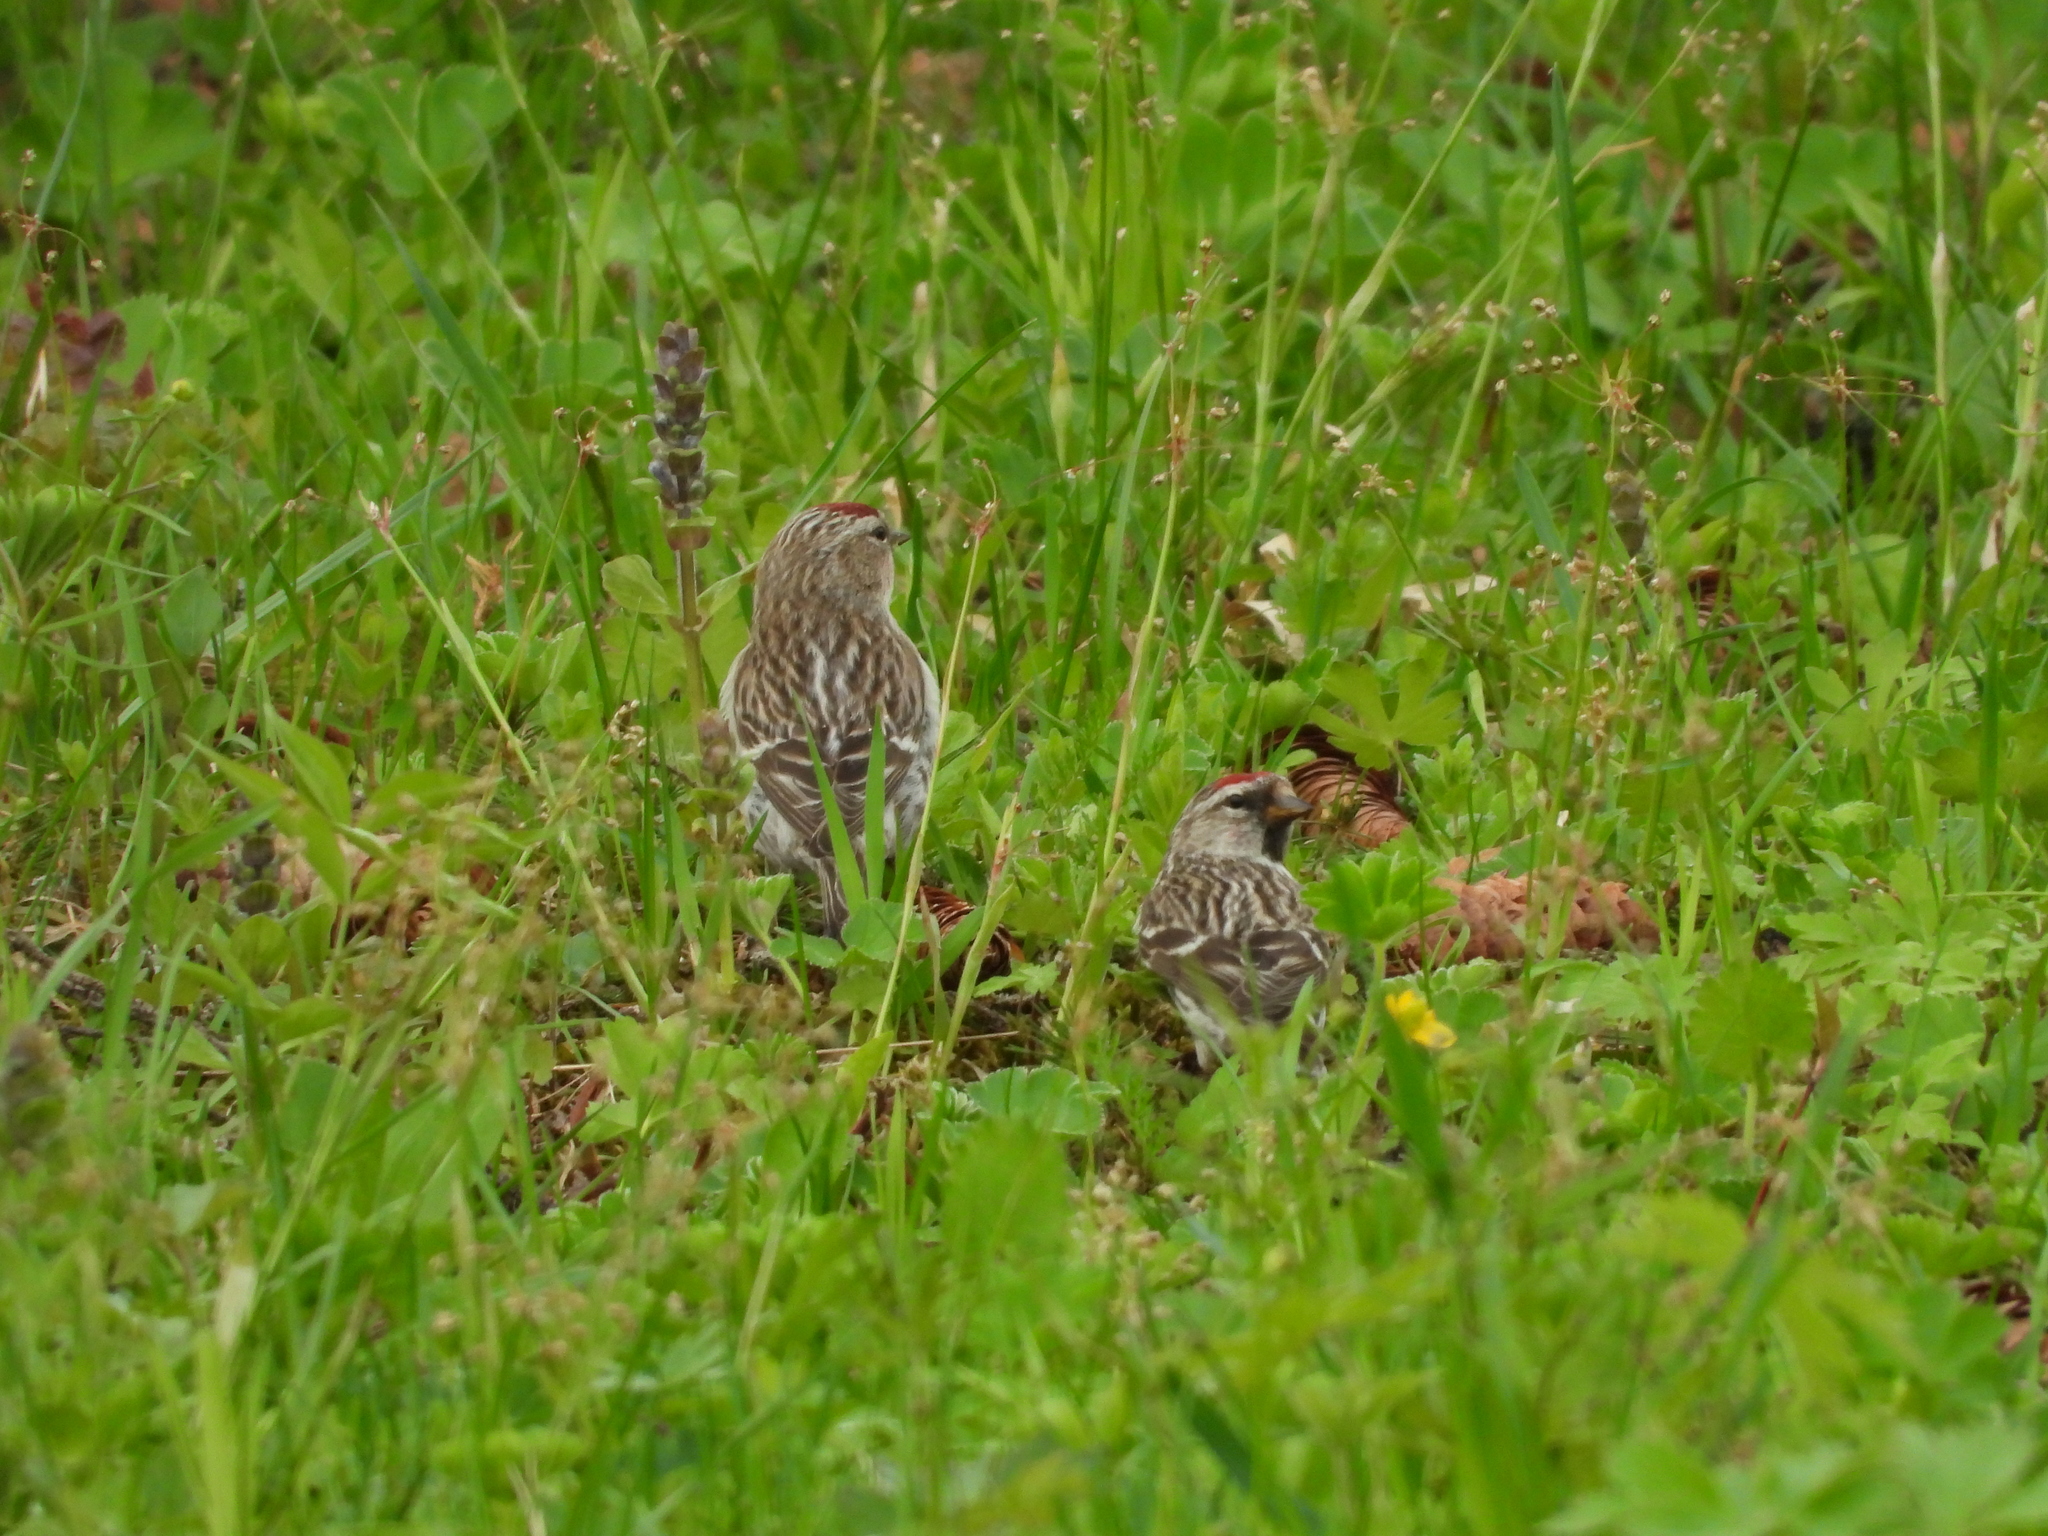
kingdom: Animalia
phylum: Chordata
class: Aves
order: Passeriformes
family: Fringillidae
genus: Acanthis
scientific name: Acanthis flammea
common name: Common redpoll
